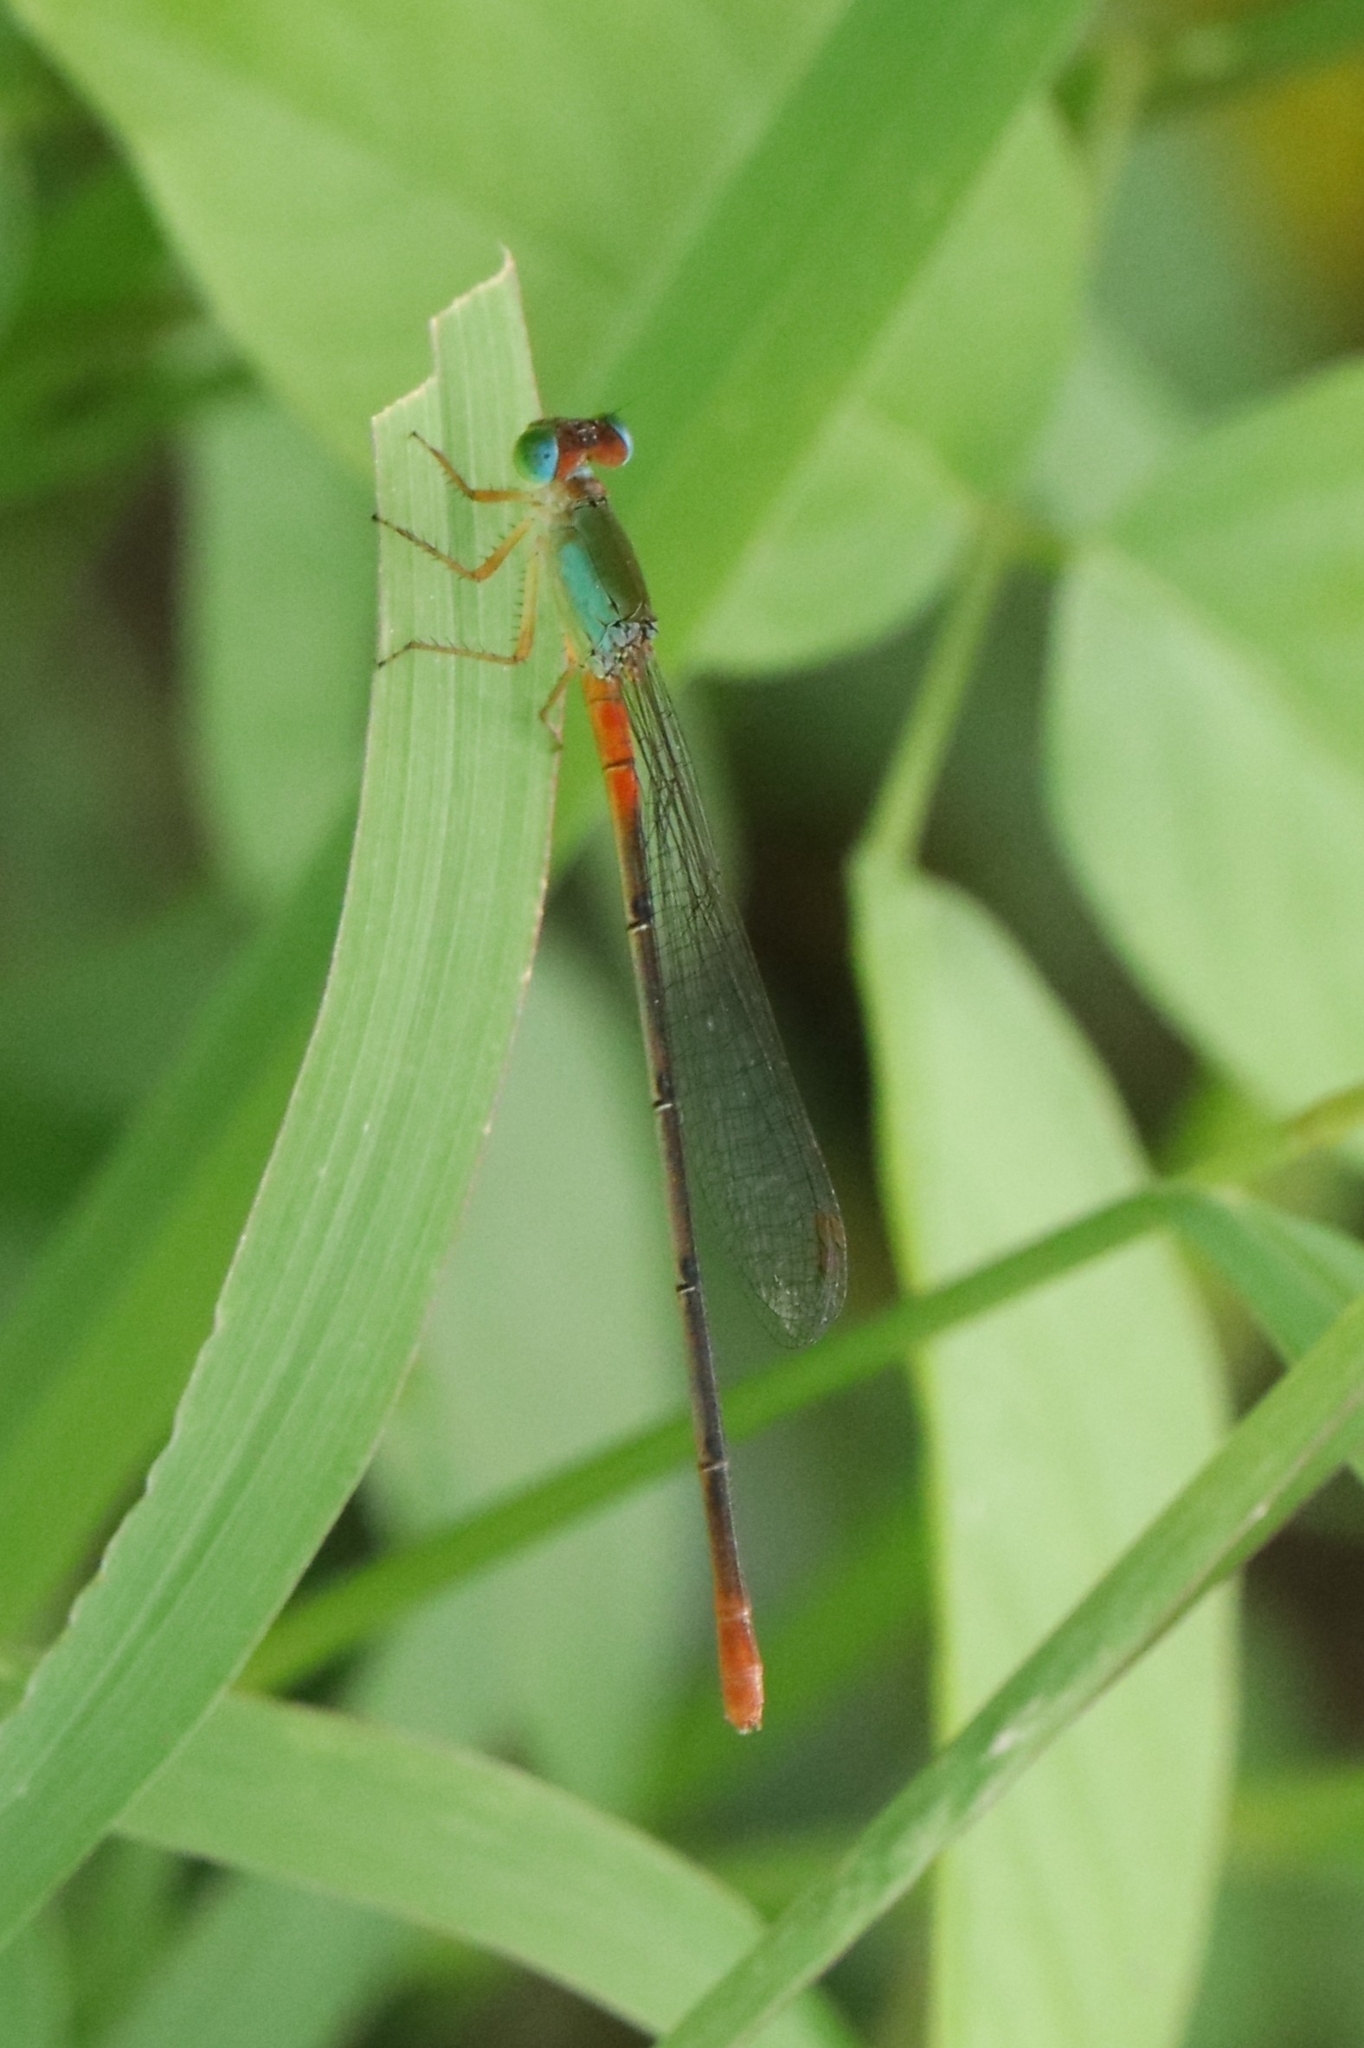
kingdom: Animalia
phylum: Arthropoda
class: Insecta
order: Odonata
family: Coenagrionidae
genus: Ceriagrion
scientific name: Ceriagrion cerinorubellum
